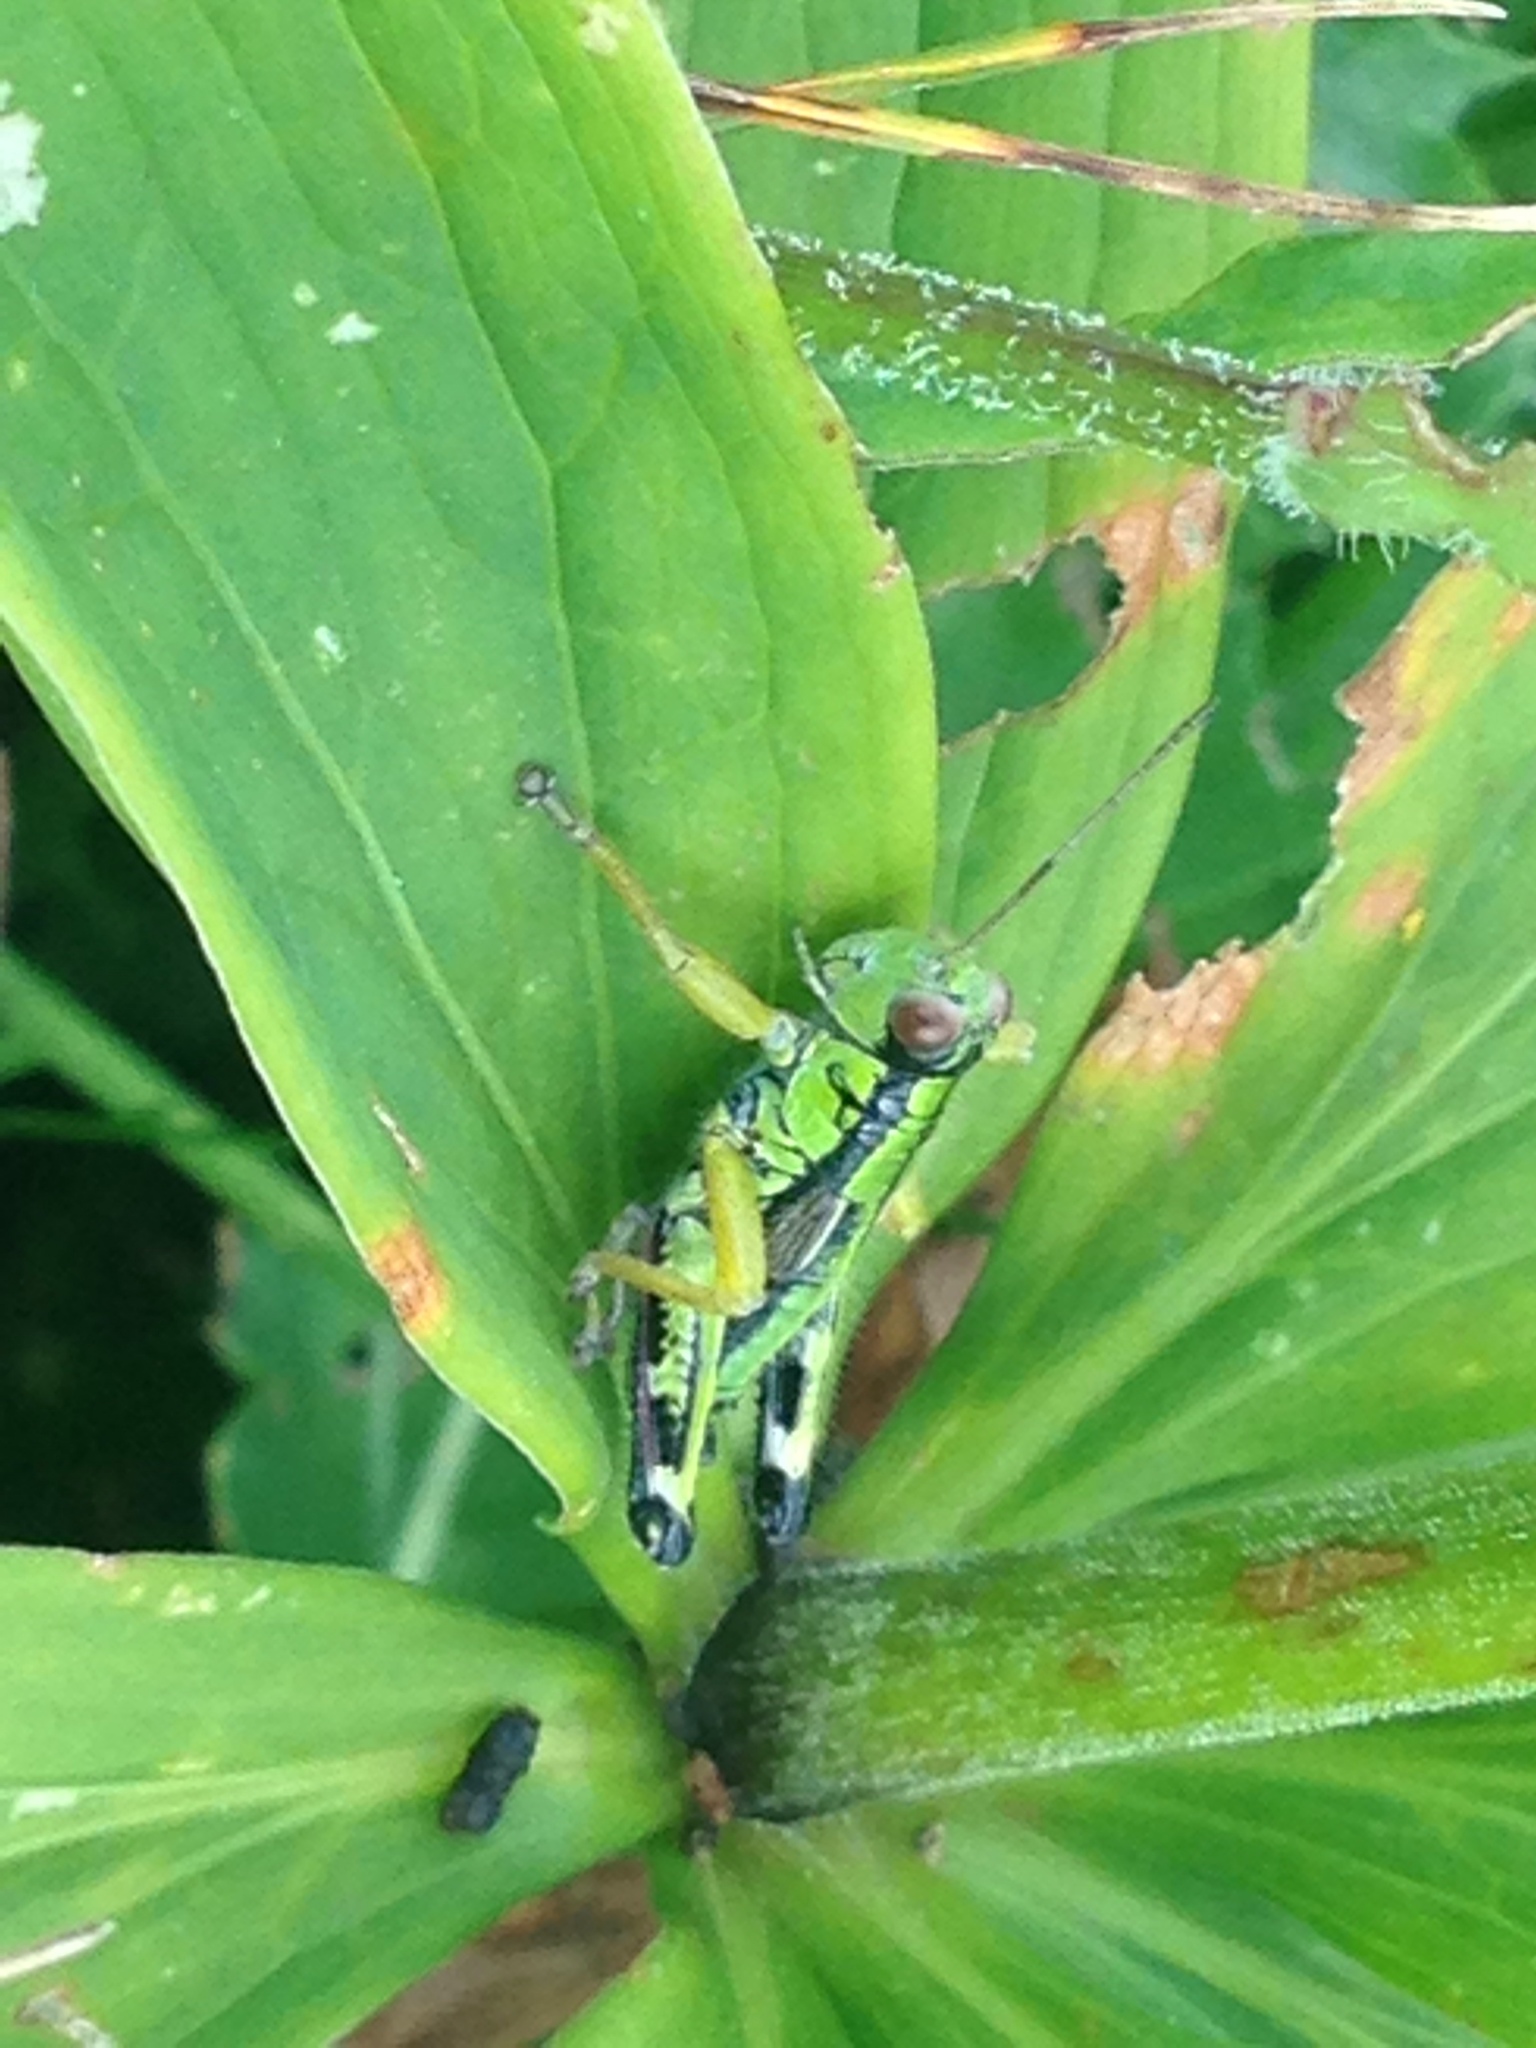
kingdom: Animalia
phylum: Arthropoda
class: Insecta
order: Orthoptera
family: Acrididae
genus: Miramella
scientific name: Miramella alpina
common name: Green mountain grasshopper
